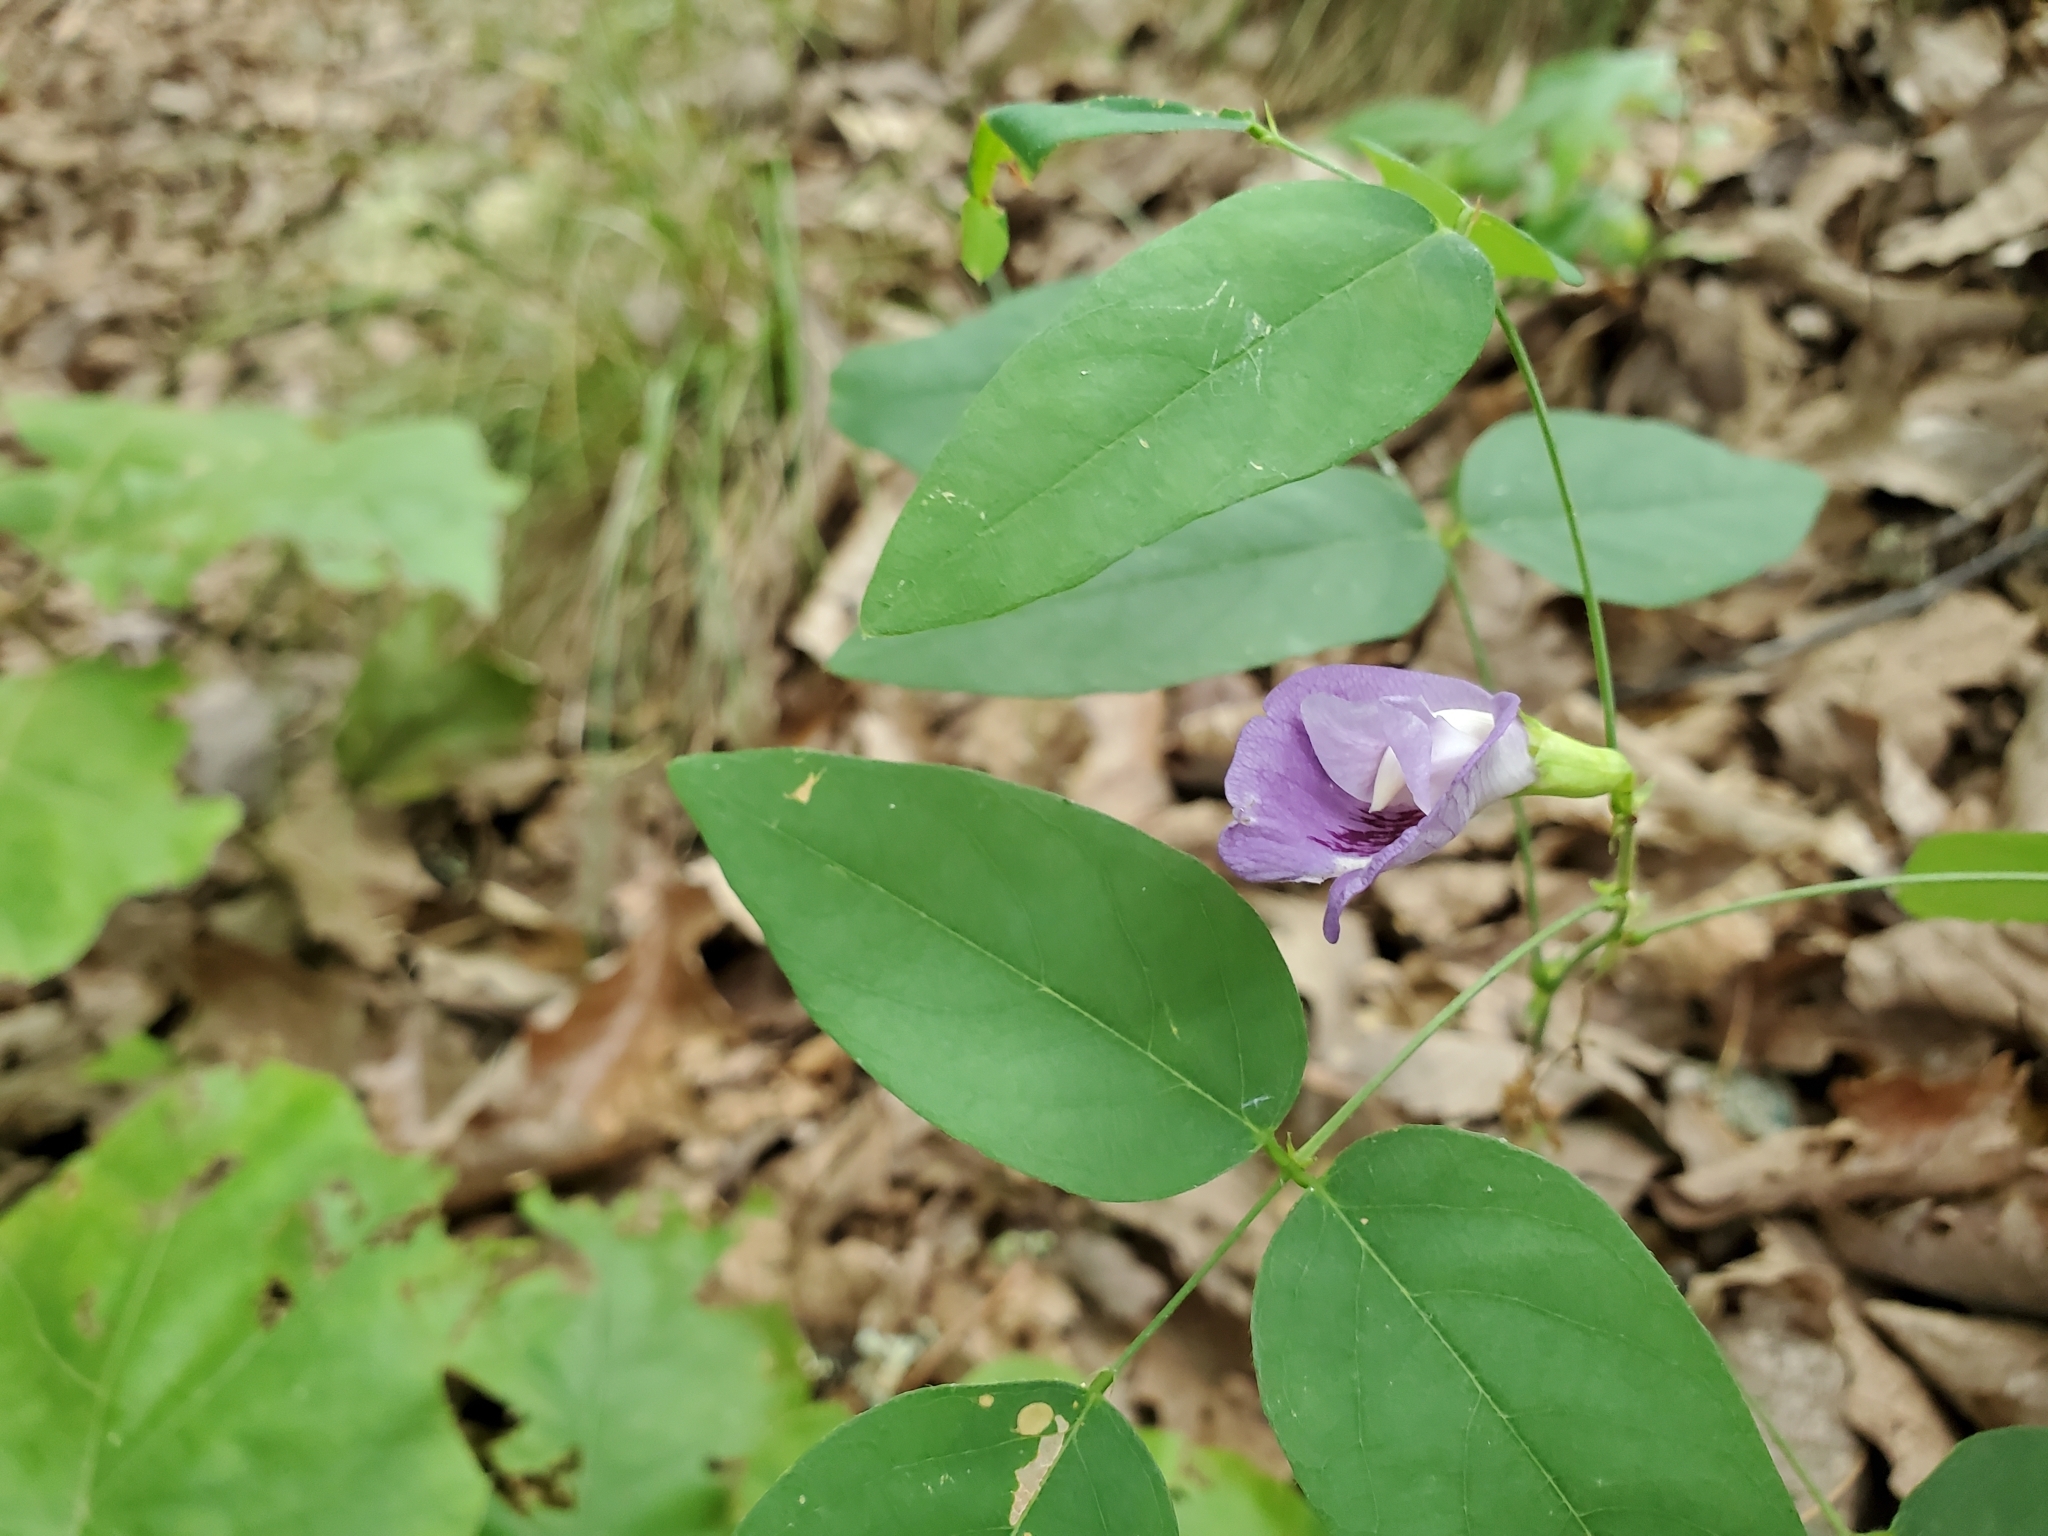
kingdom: Plantae
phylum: Tracheophyta
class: Magnoliopsida
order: Fabales
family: Fabaceae
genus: Clitoria
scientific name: Clitoria mariana
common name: Butterfly-pea
